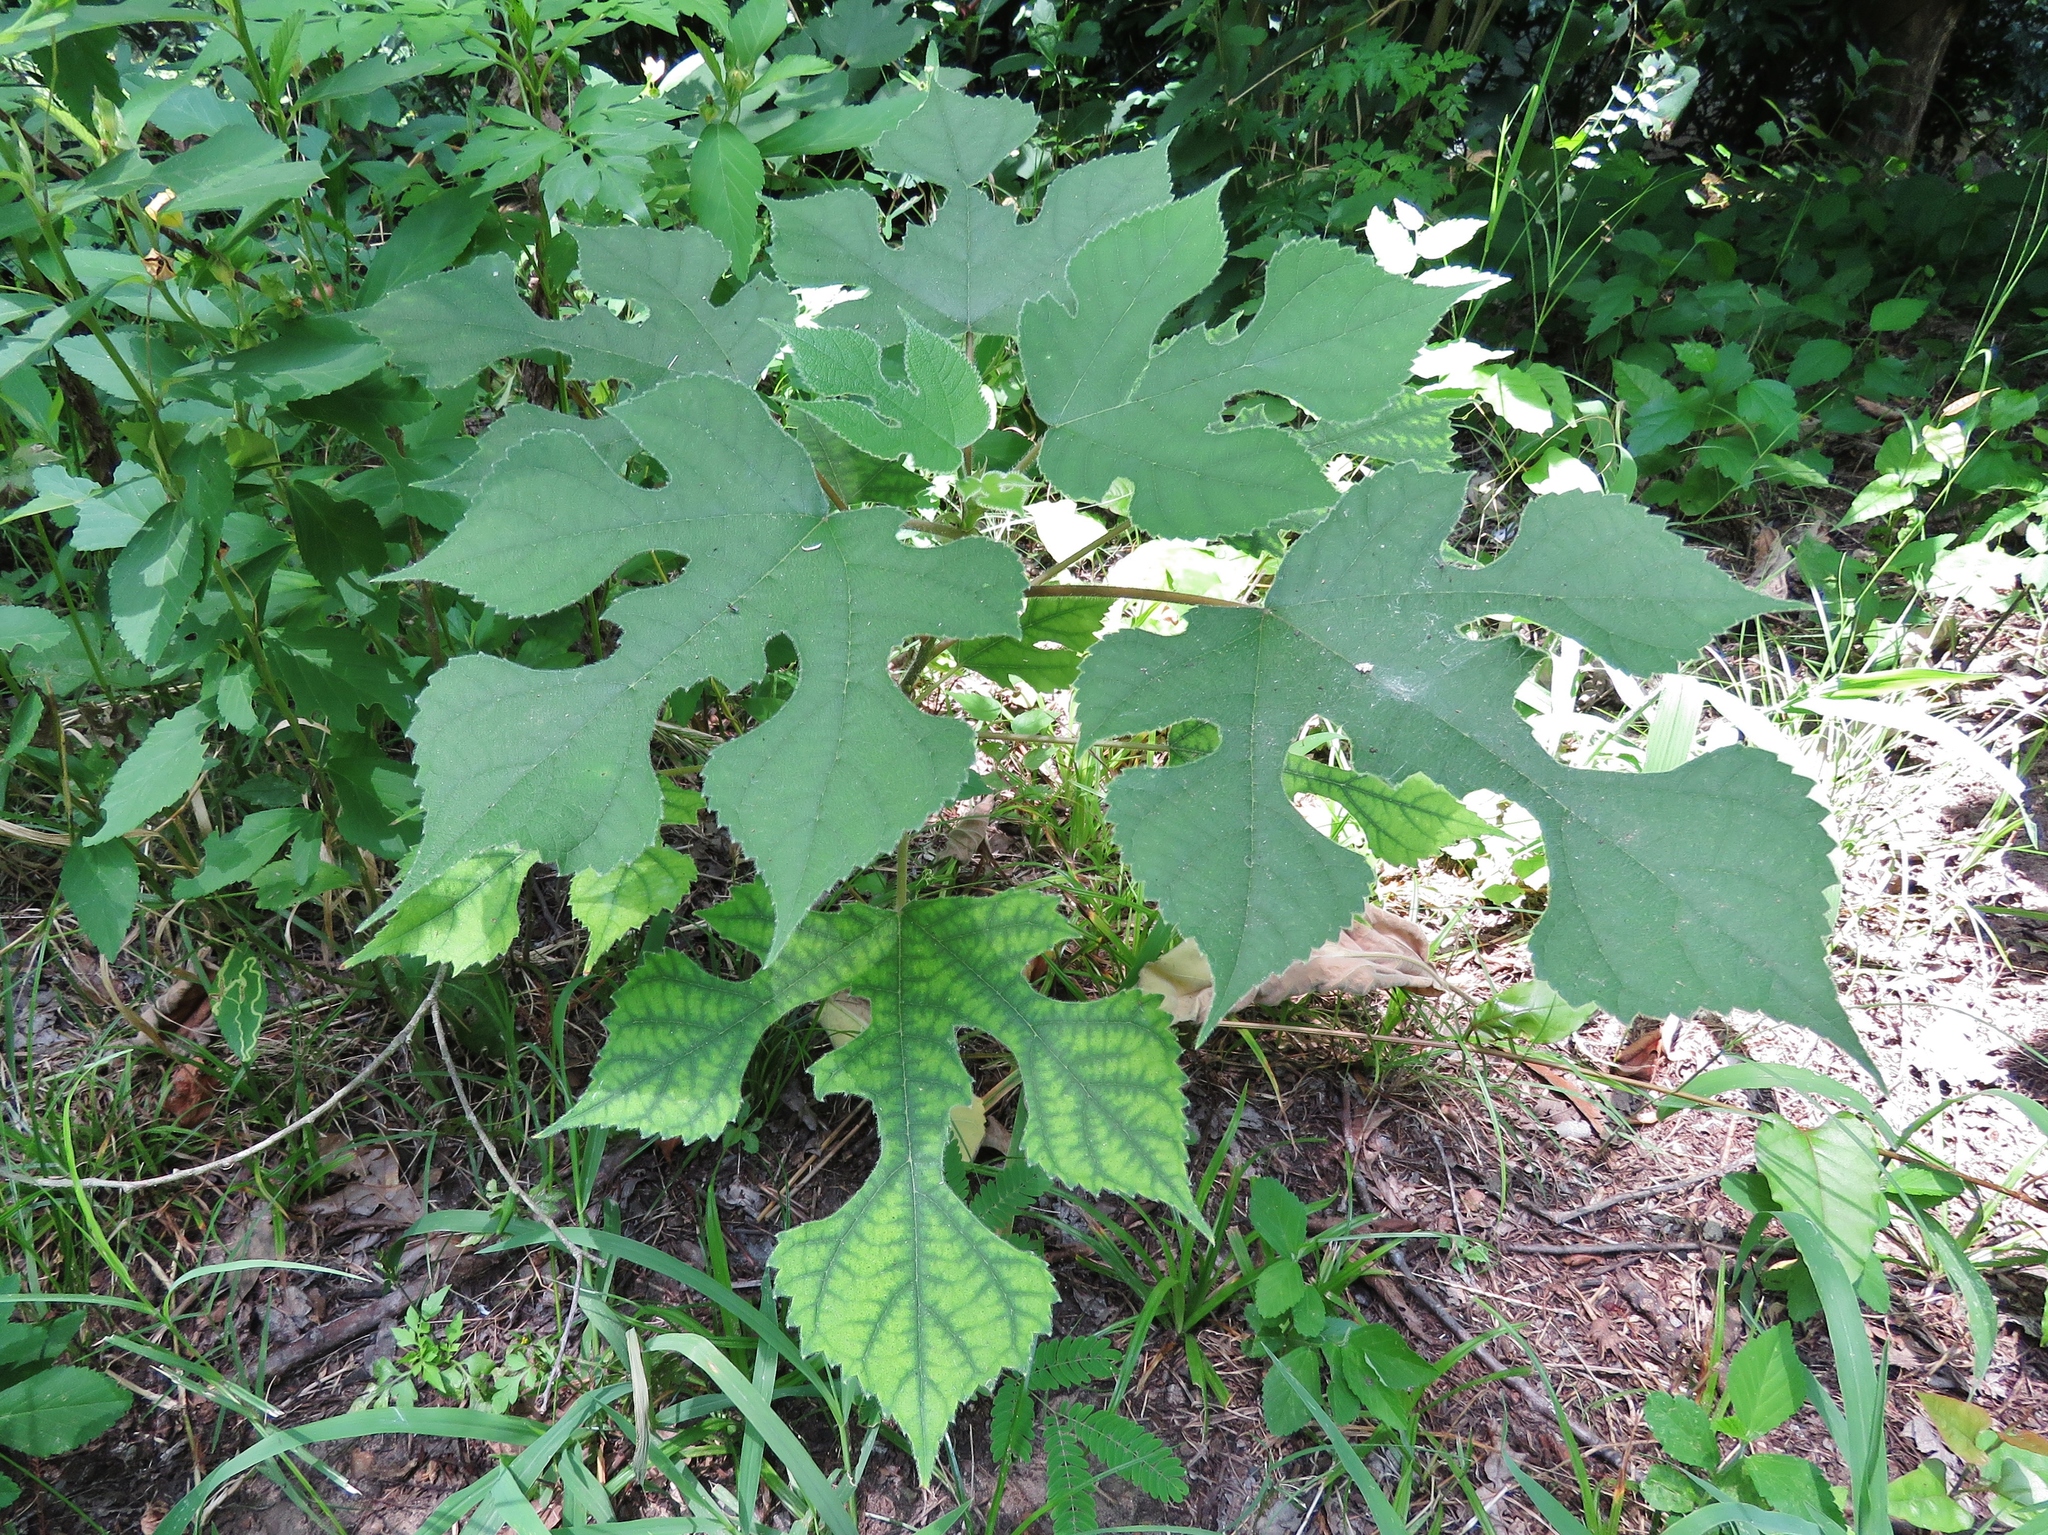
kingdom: Plantae
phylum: Tracheophyta
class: Magnoliopsida
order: Rosales
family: Moraceae
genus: Broussonetia
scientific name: Broussonetia papyrifera
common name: Paper mulberry
